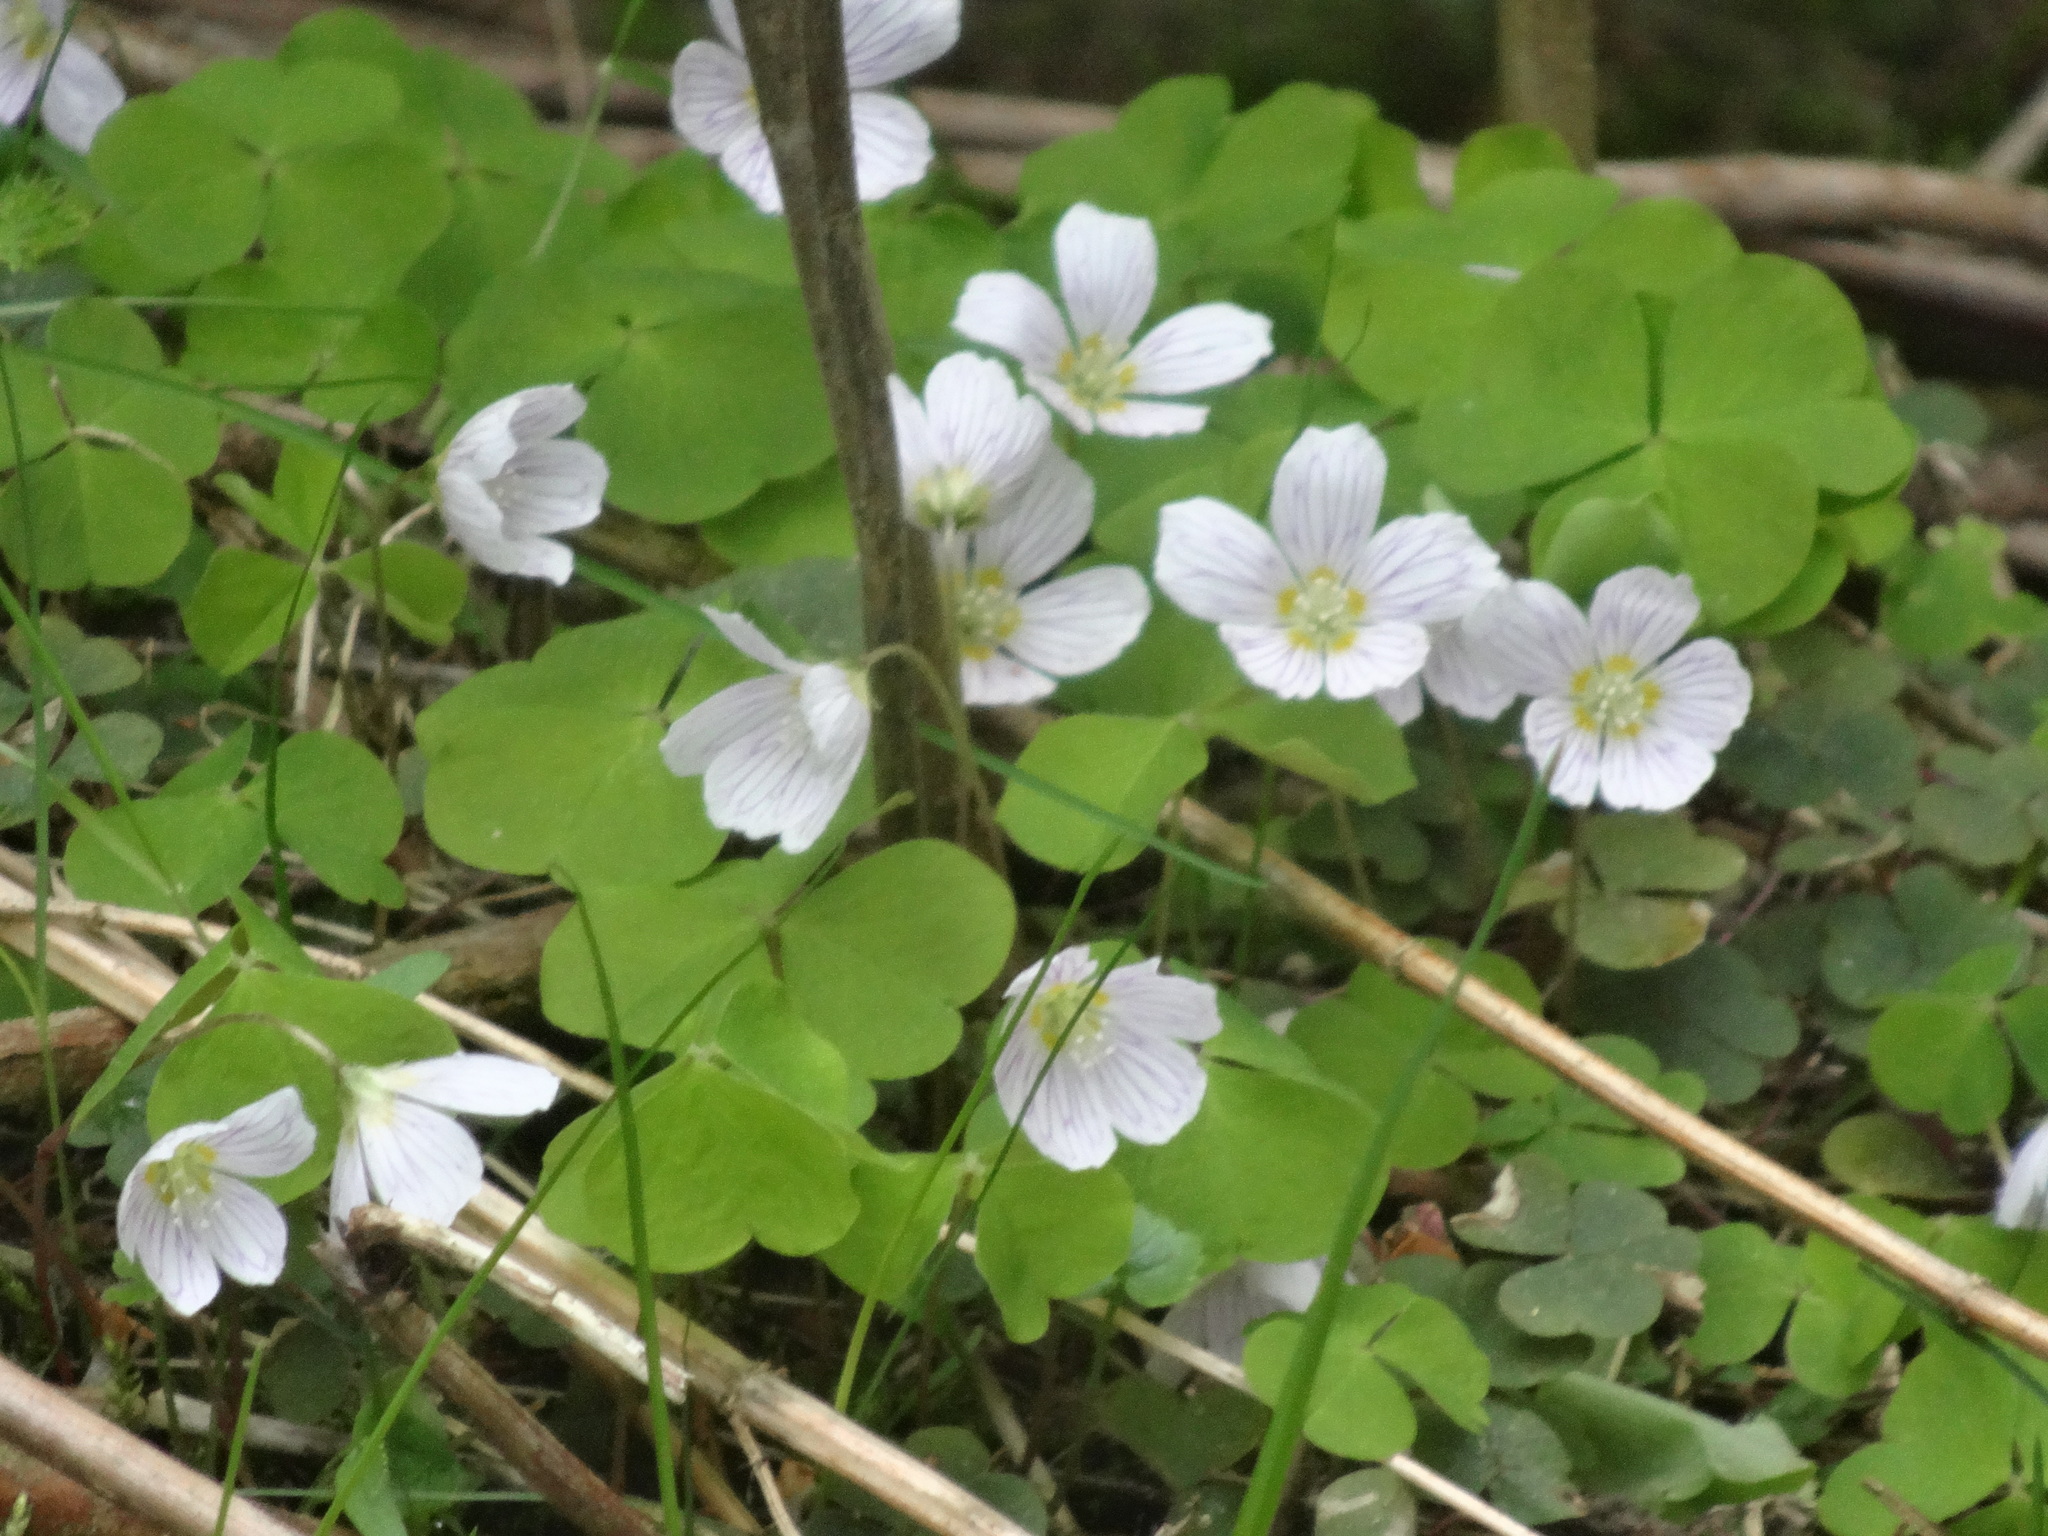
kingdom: Plantae
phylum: Tracheophyta
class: Magnoliopsida
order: Oxalidales
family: Oxalidaceae
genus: Oxalis
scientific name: Oxalis acetosella
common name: Wood-sorrel
